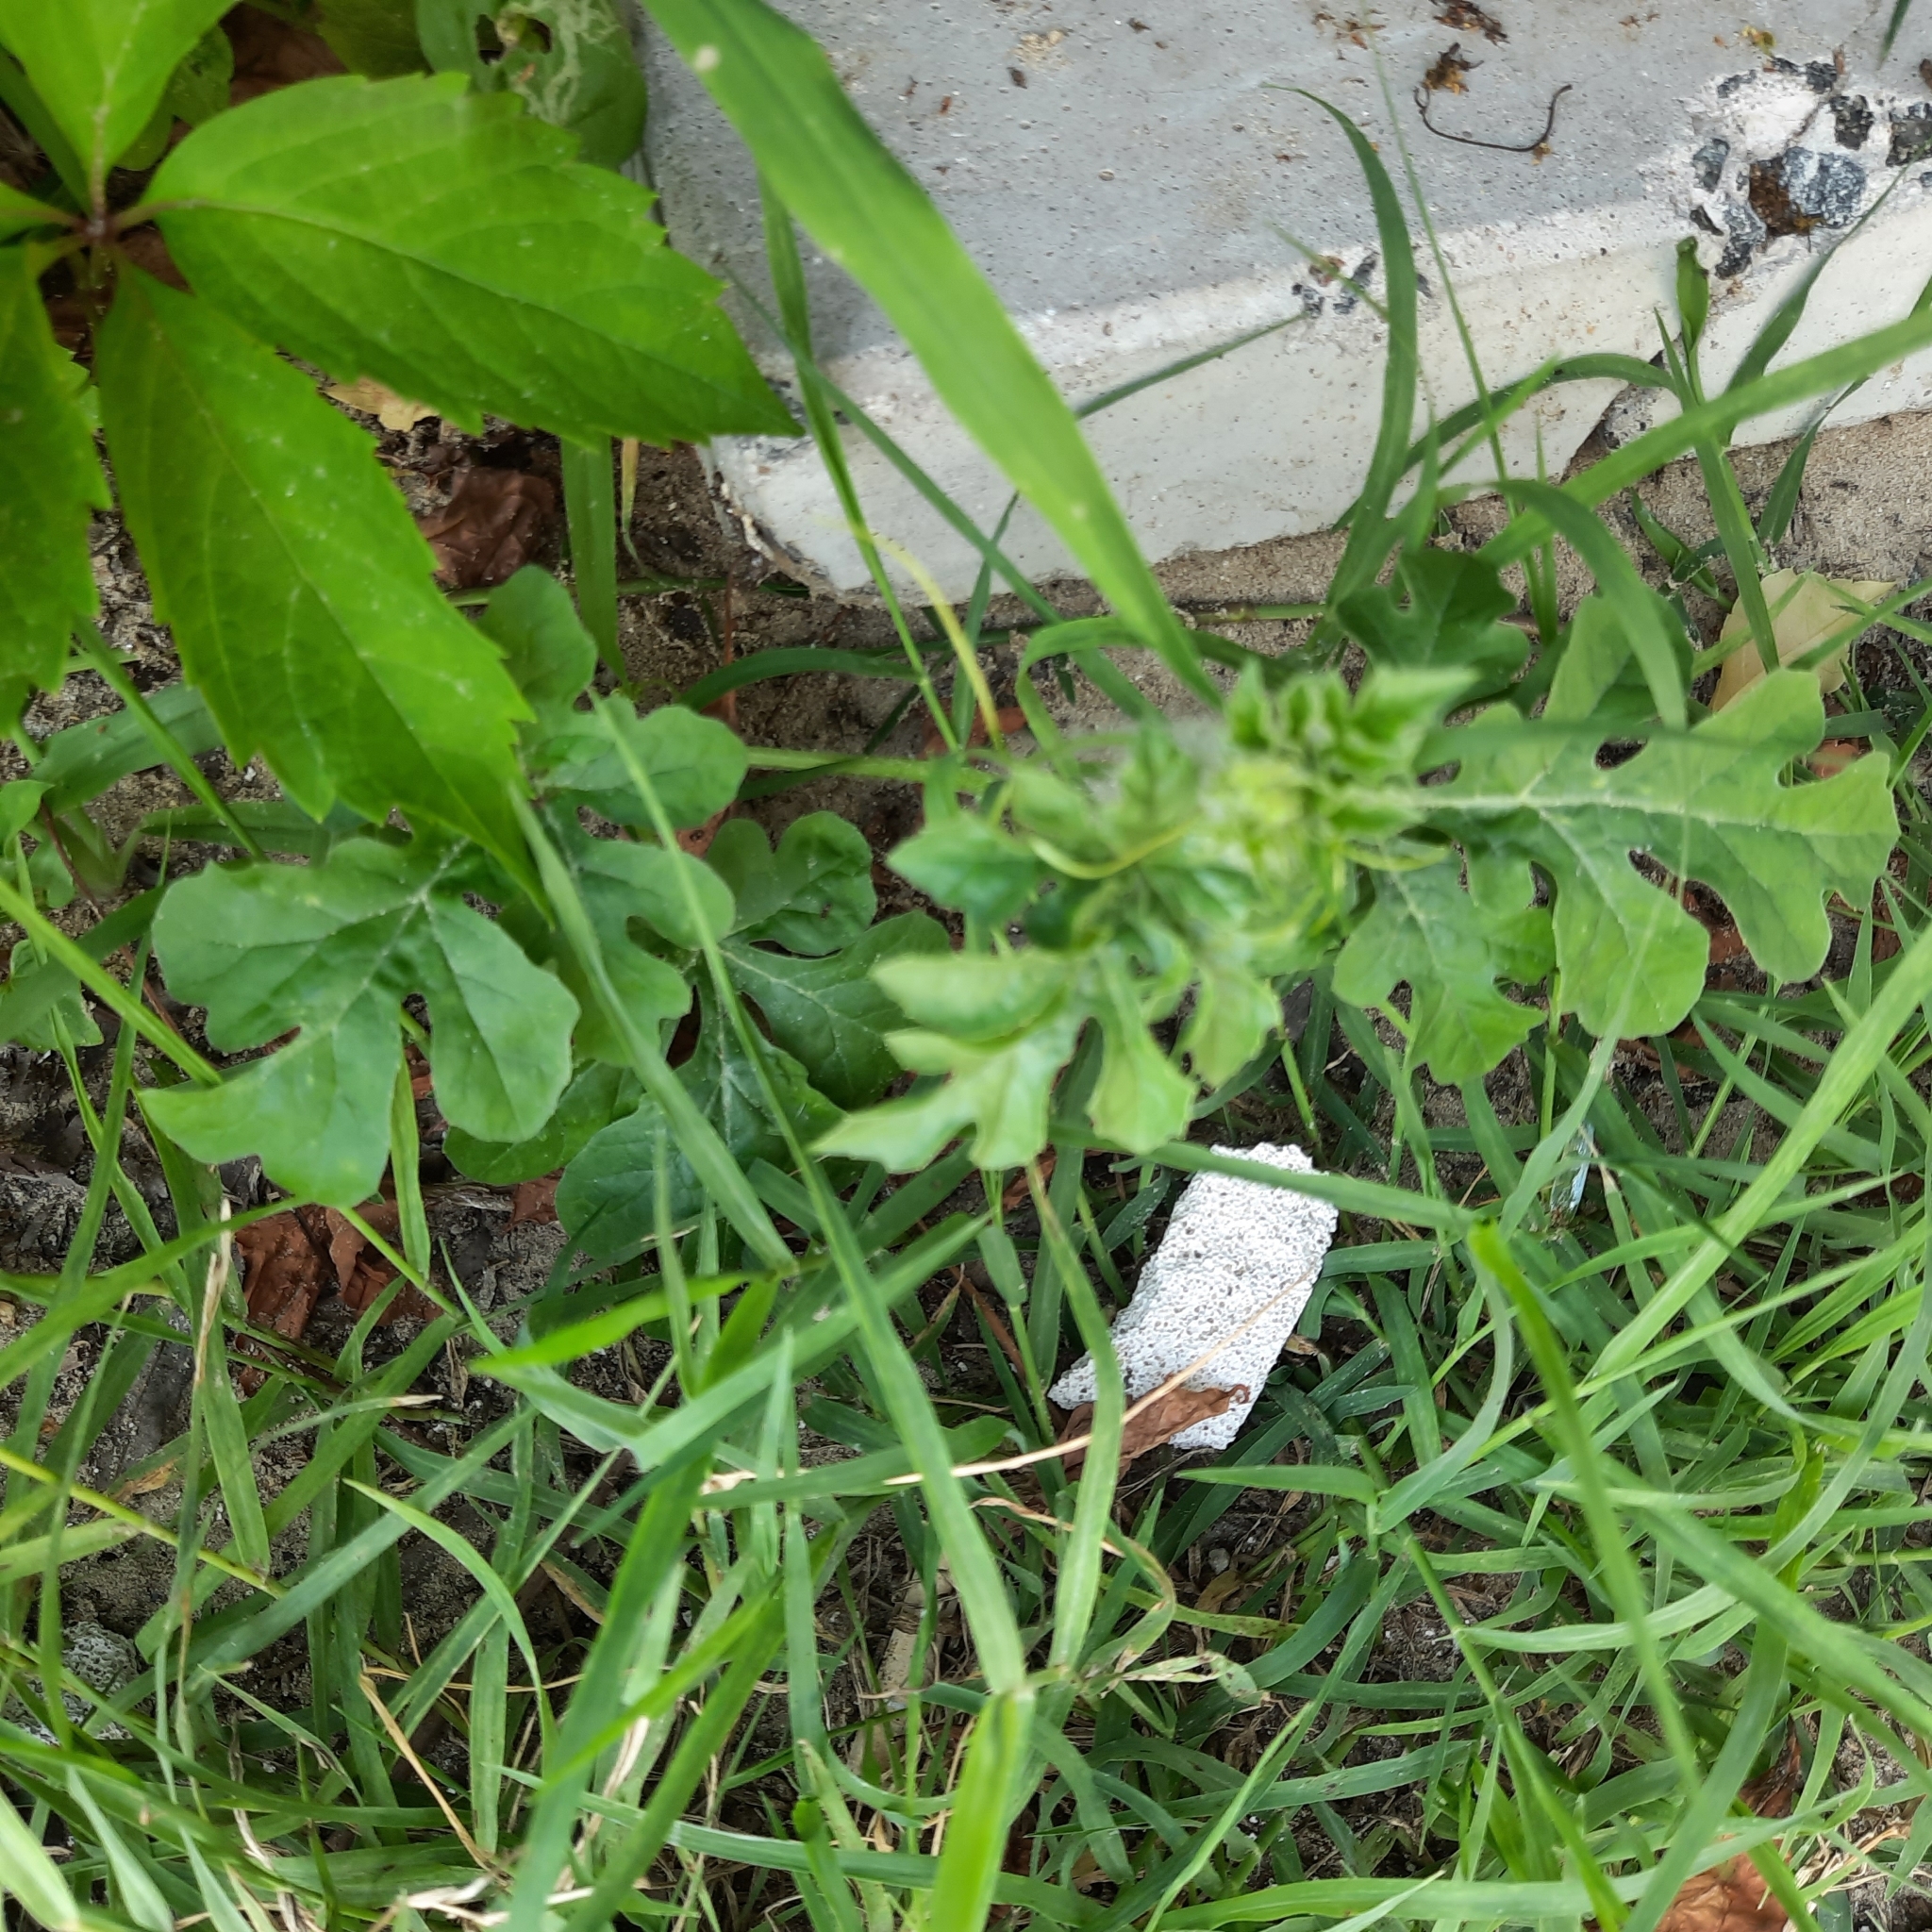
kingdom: Plantae
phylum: Tracheophyta
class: Magnoliopsida
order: Cucurbitales
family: Cucurbitaceae
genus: Citrullus
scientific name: Citrullus lanatus
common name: Watermelon
